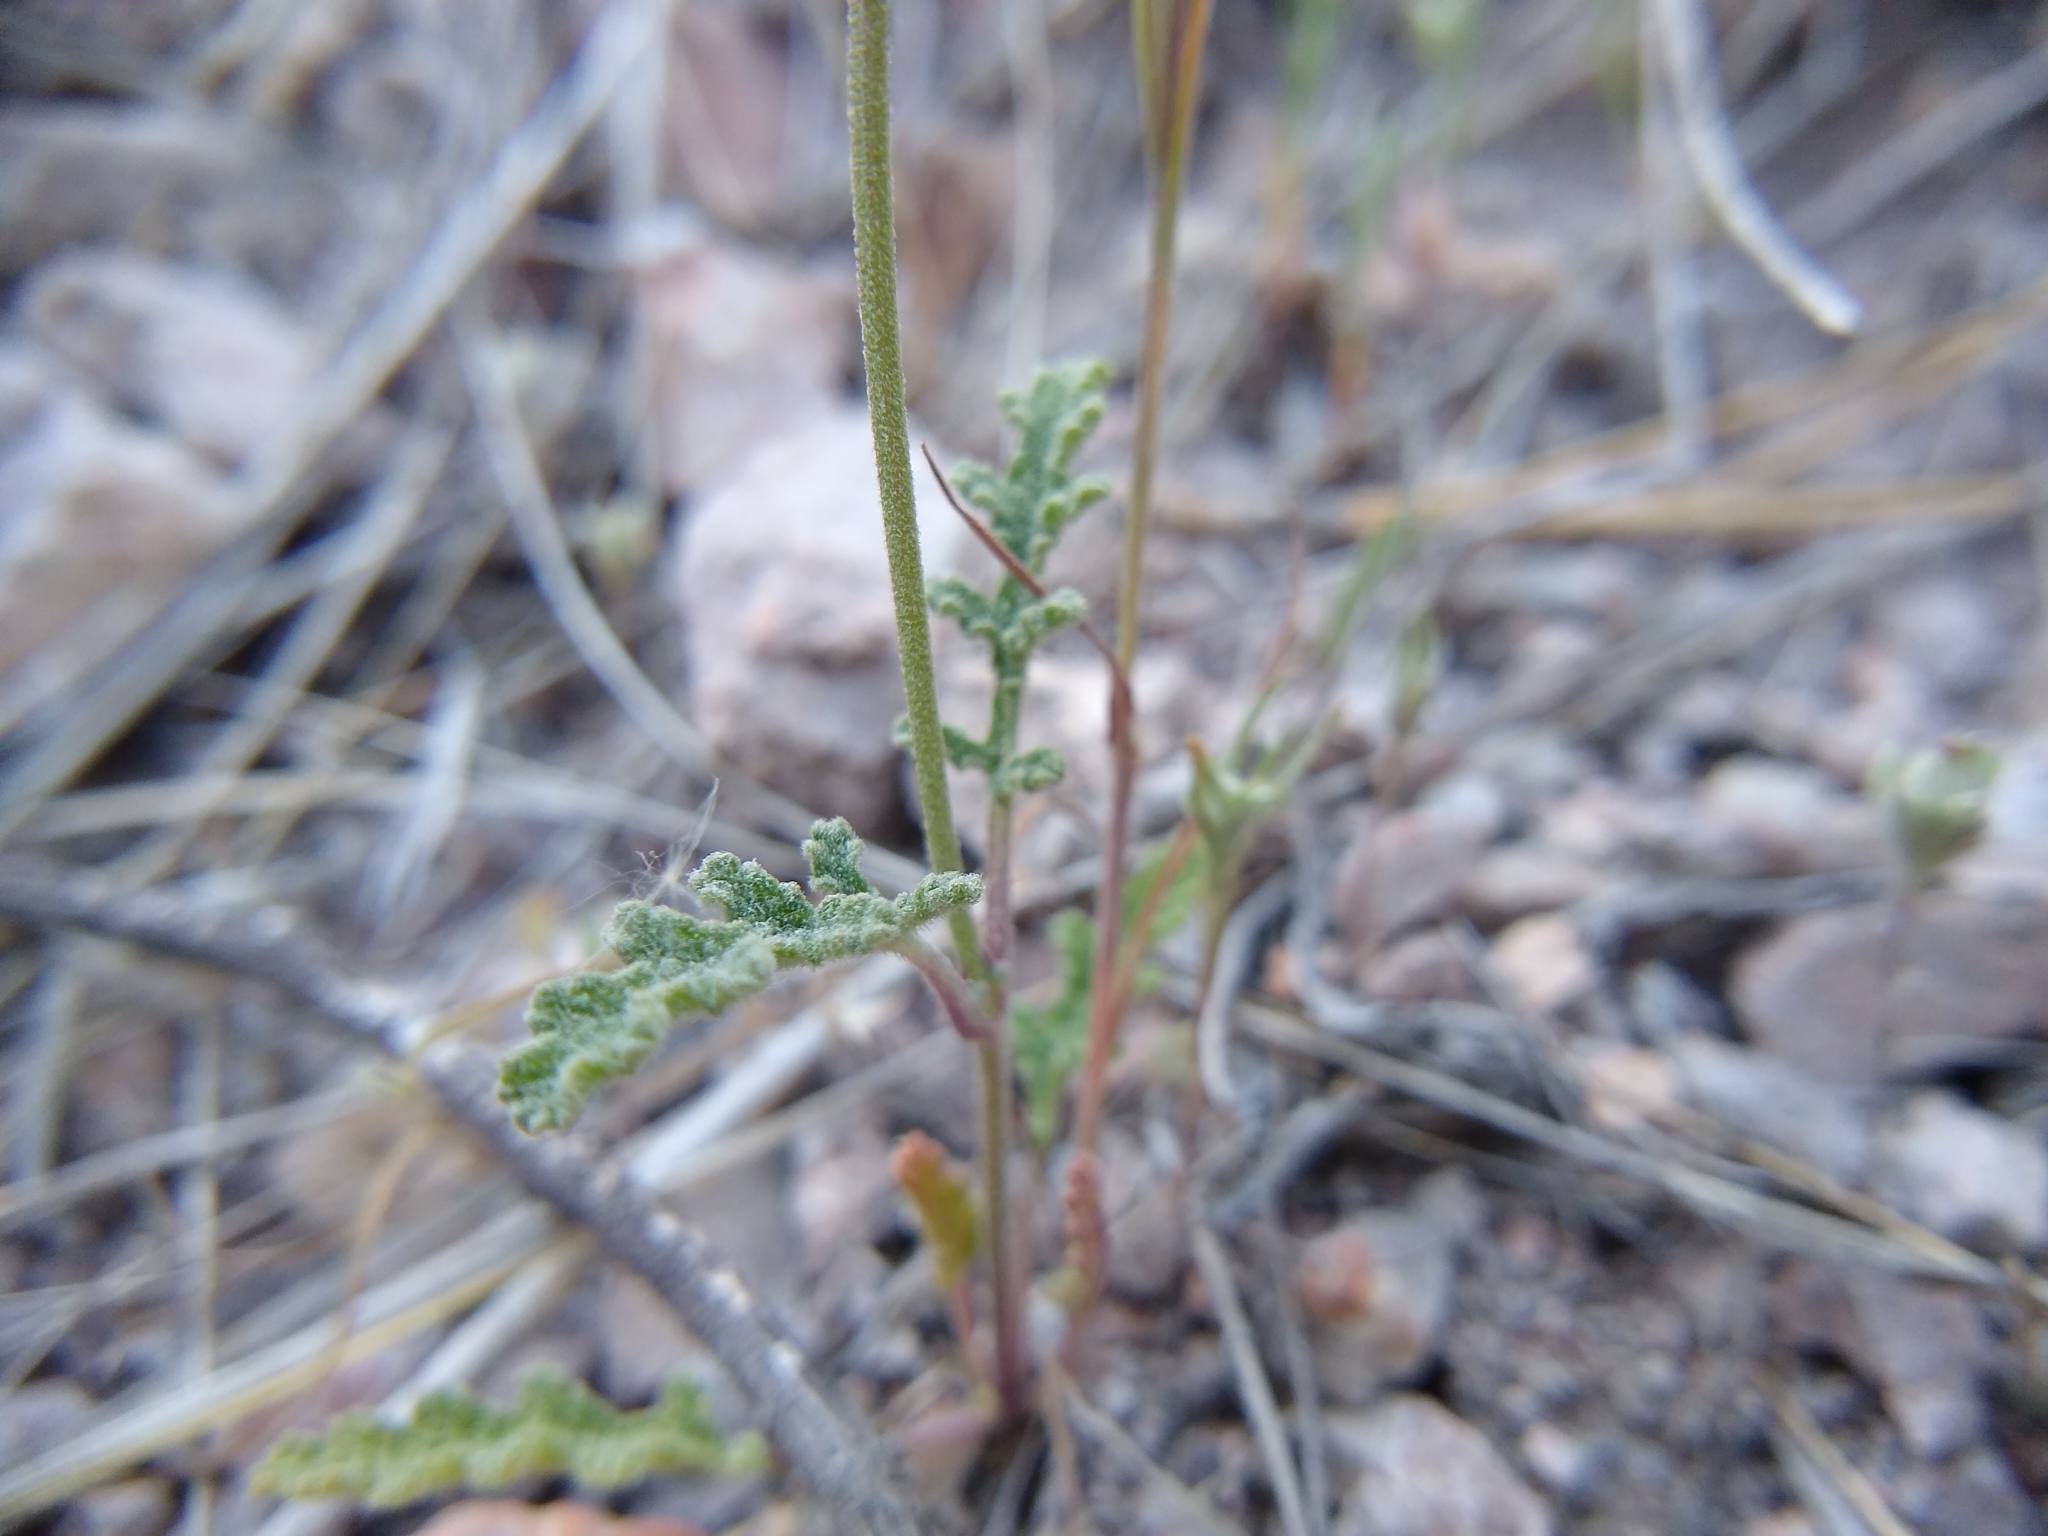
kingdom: Plantae
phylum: Tracheophyta
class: Magnoliopsida
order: Lamiales
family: Lamiaceae
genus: Salvia
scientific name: Salvia columbariae
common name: Chia
